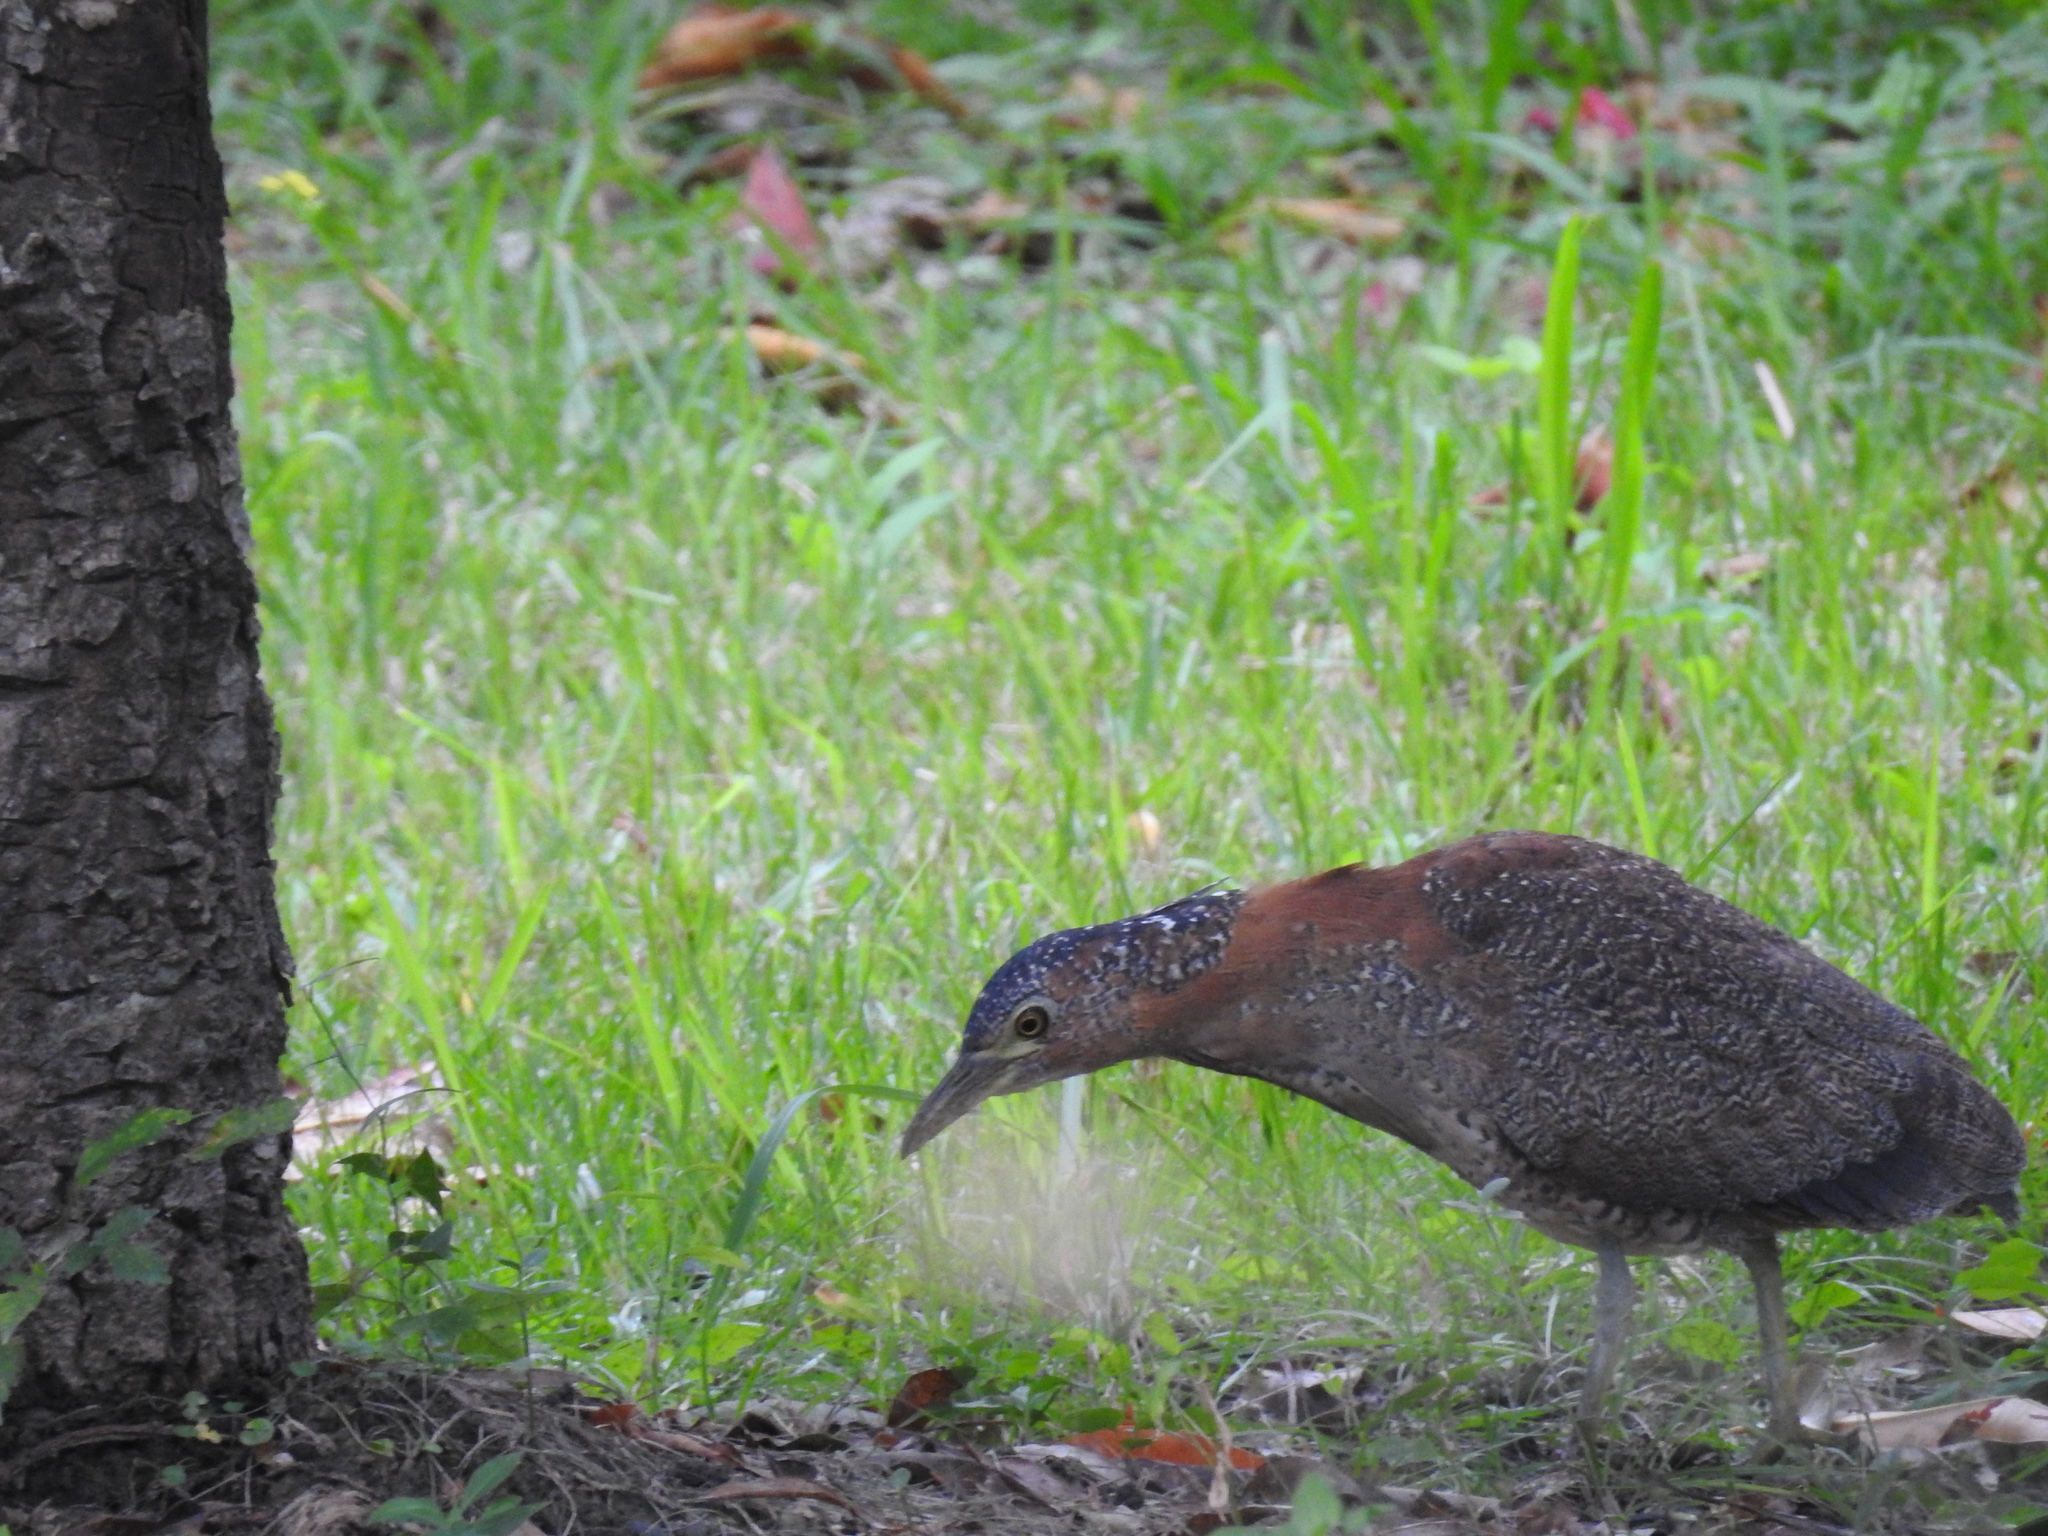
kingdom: Animalia
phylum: Chordata
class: Aves
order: Pelecaniformes
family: Ardeidae
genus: Gorsachius
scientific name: Gorsachius melanolophus
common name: Malayan night heron
